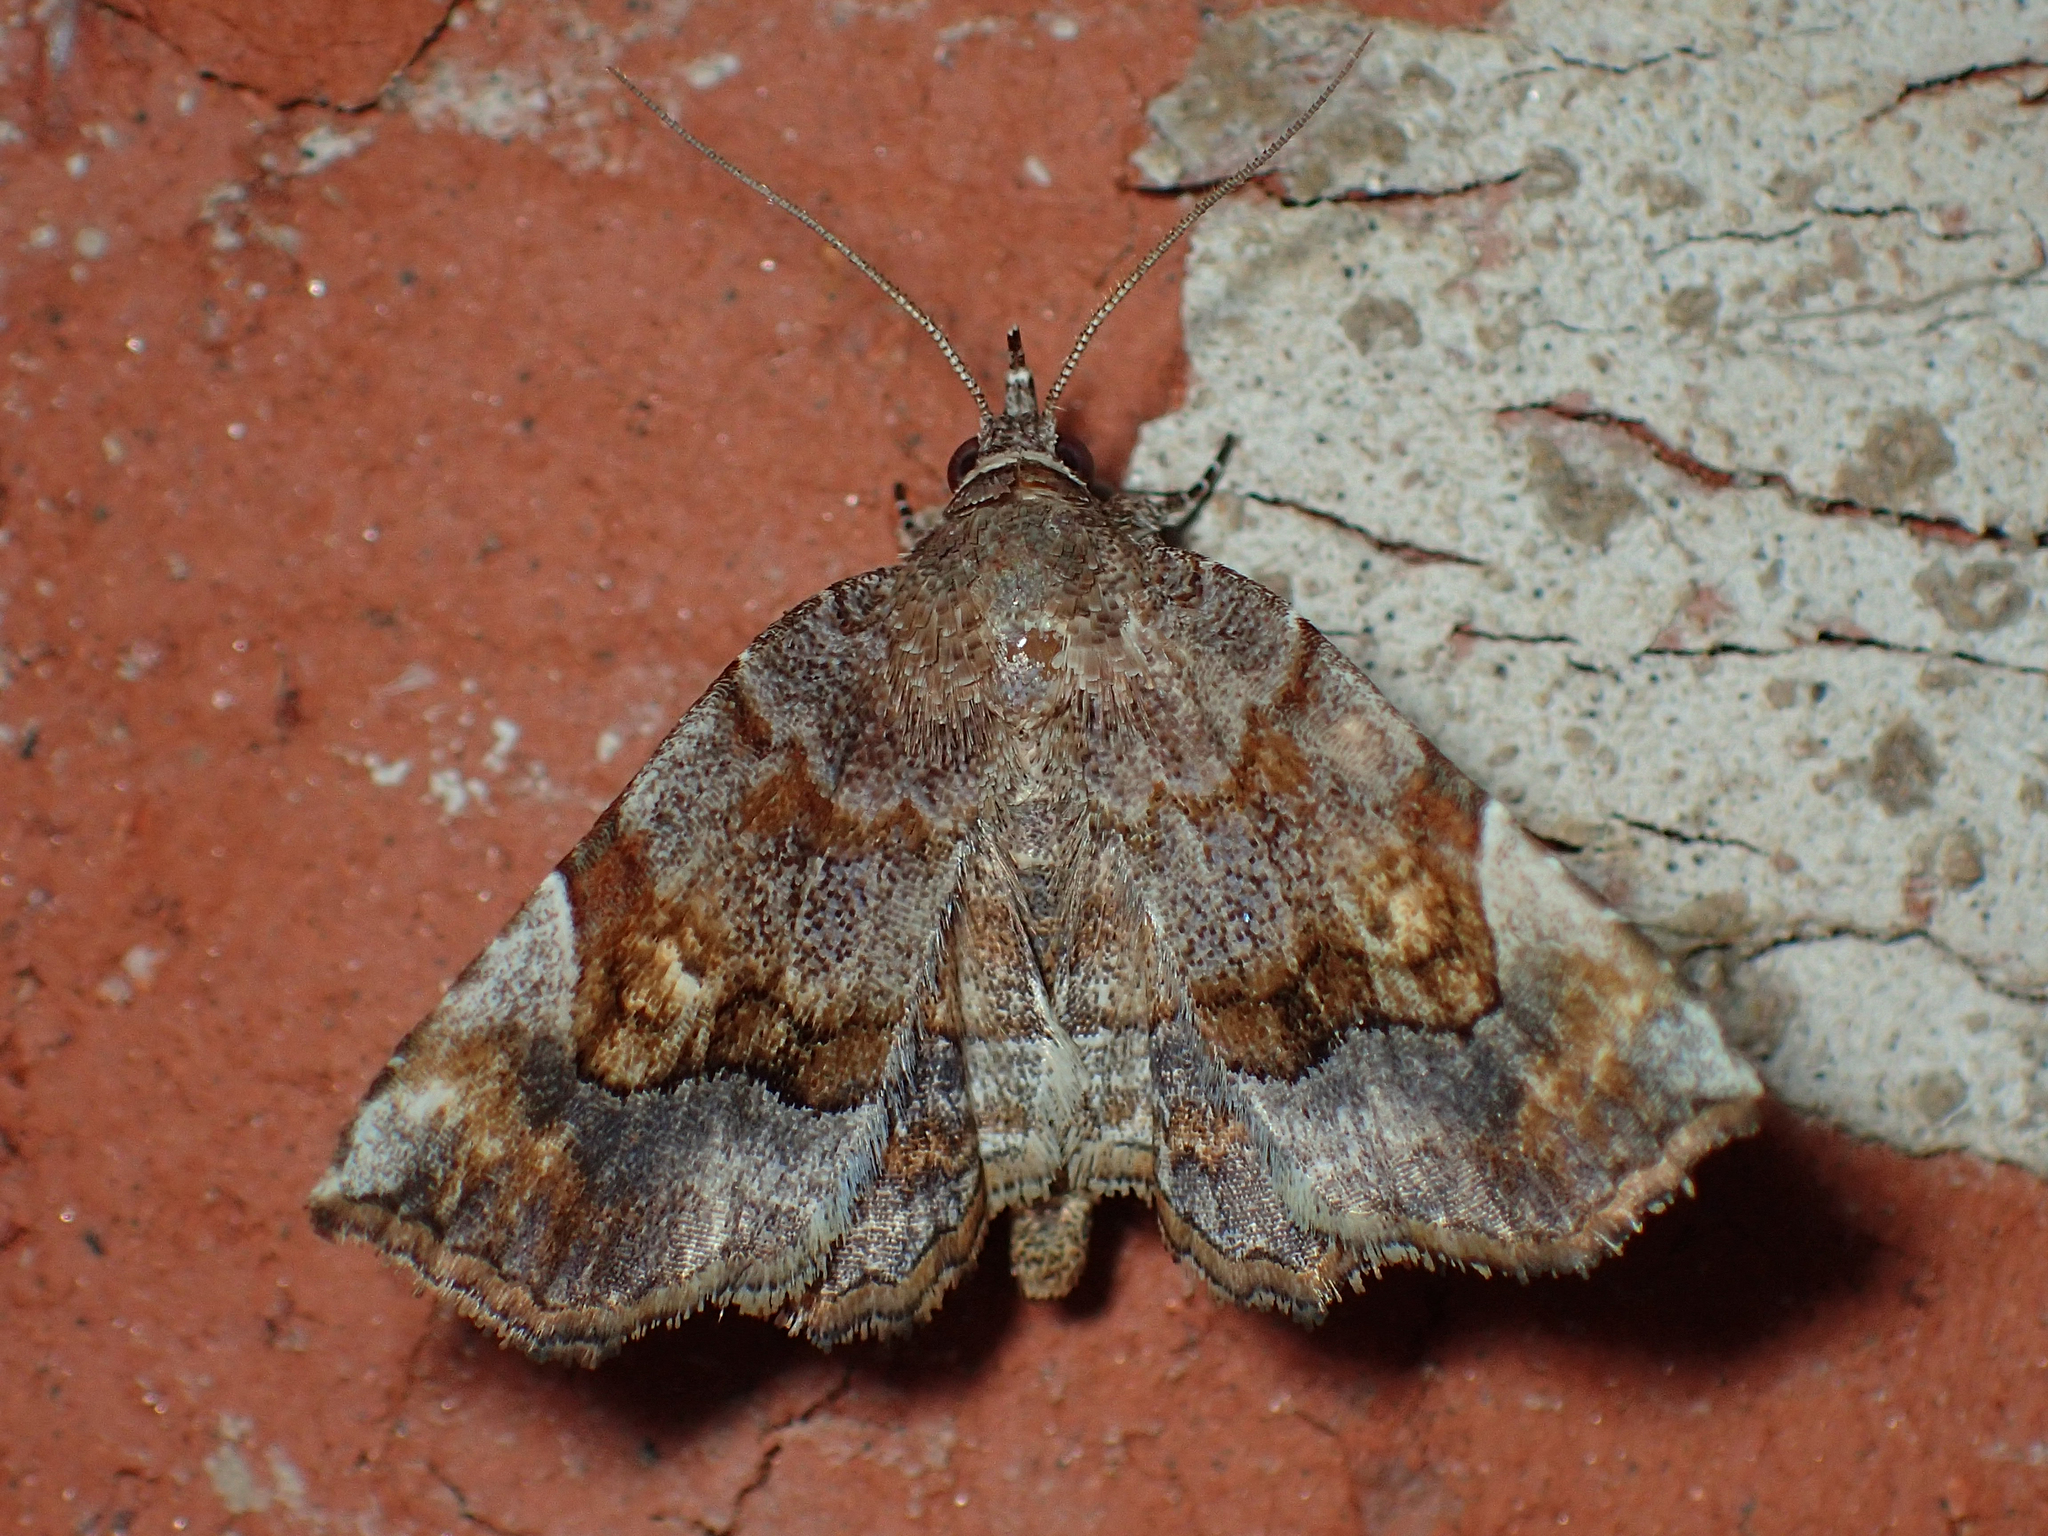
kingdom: Animalia
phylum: Arthropoda
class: Insecta
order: Lepidoptera
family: Erebidae
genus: Pangrapta
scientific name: Pangrapta decoralis
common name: Decorated owlet
